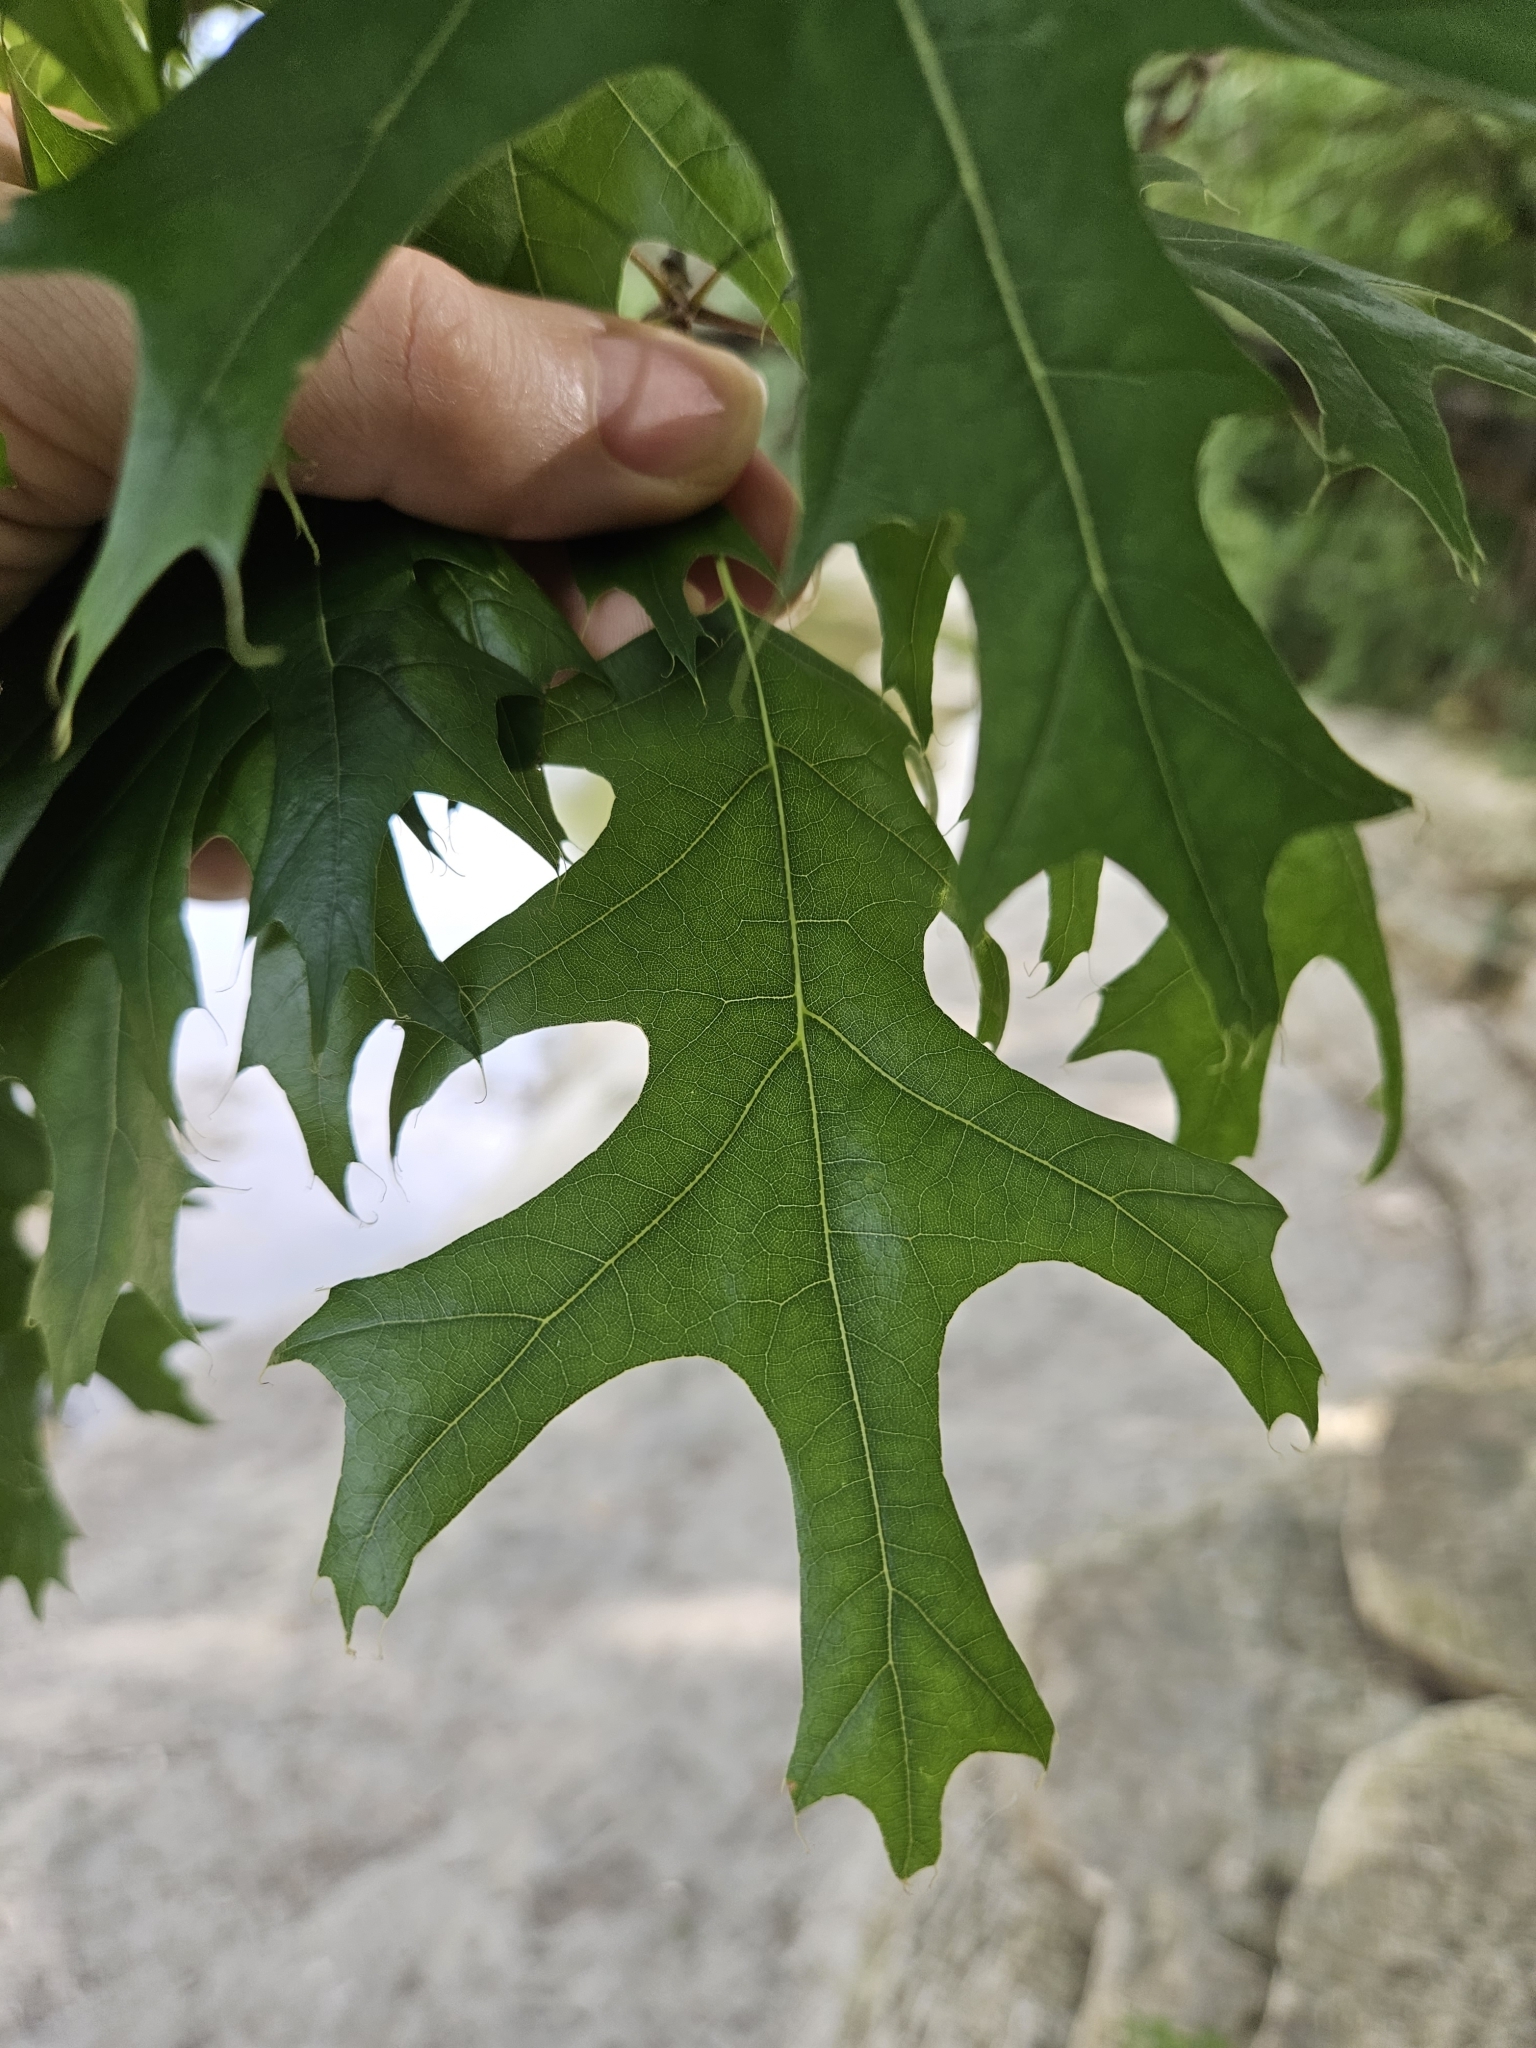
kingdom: Plantae
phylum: Tracheophyta
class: Magnoliopsida
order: Fagales
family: Fagaceae
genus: Quercus
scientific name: Quercus shumardii
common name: Shumard oak
